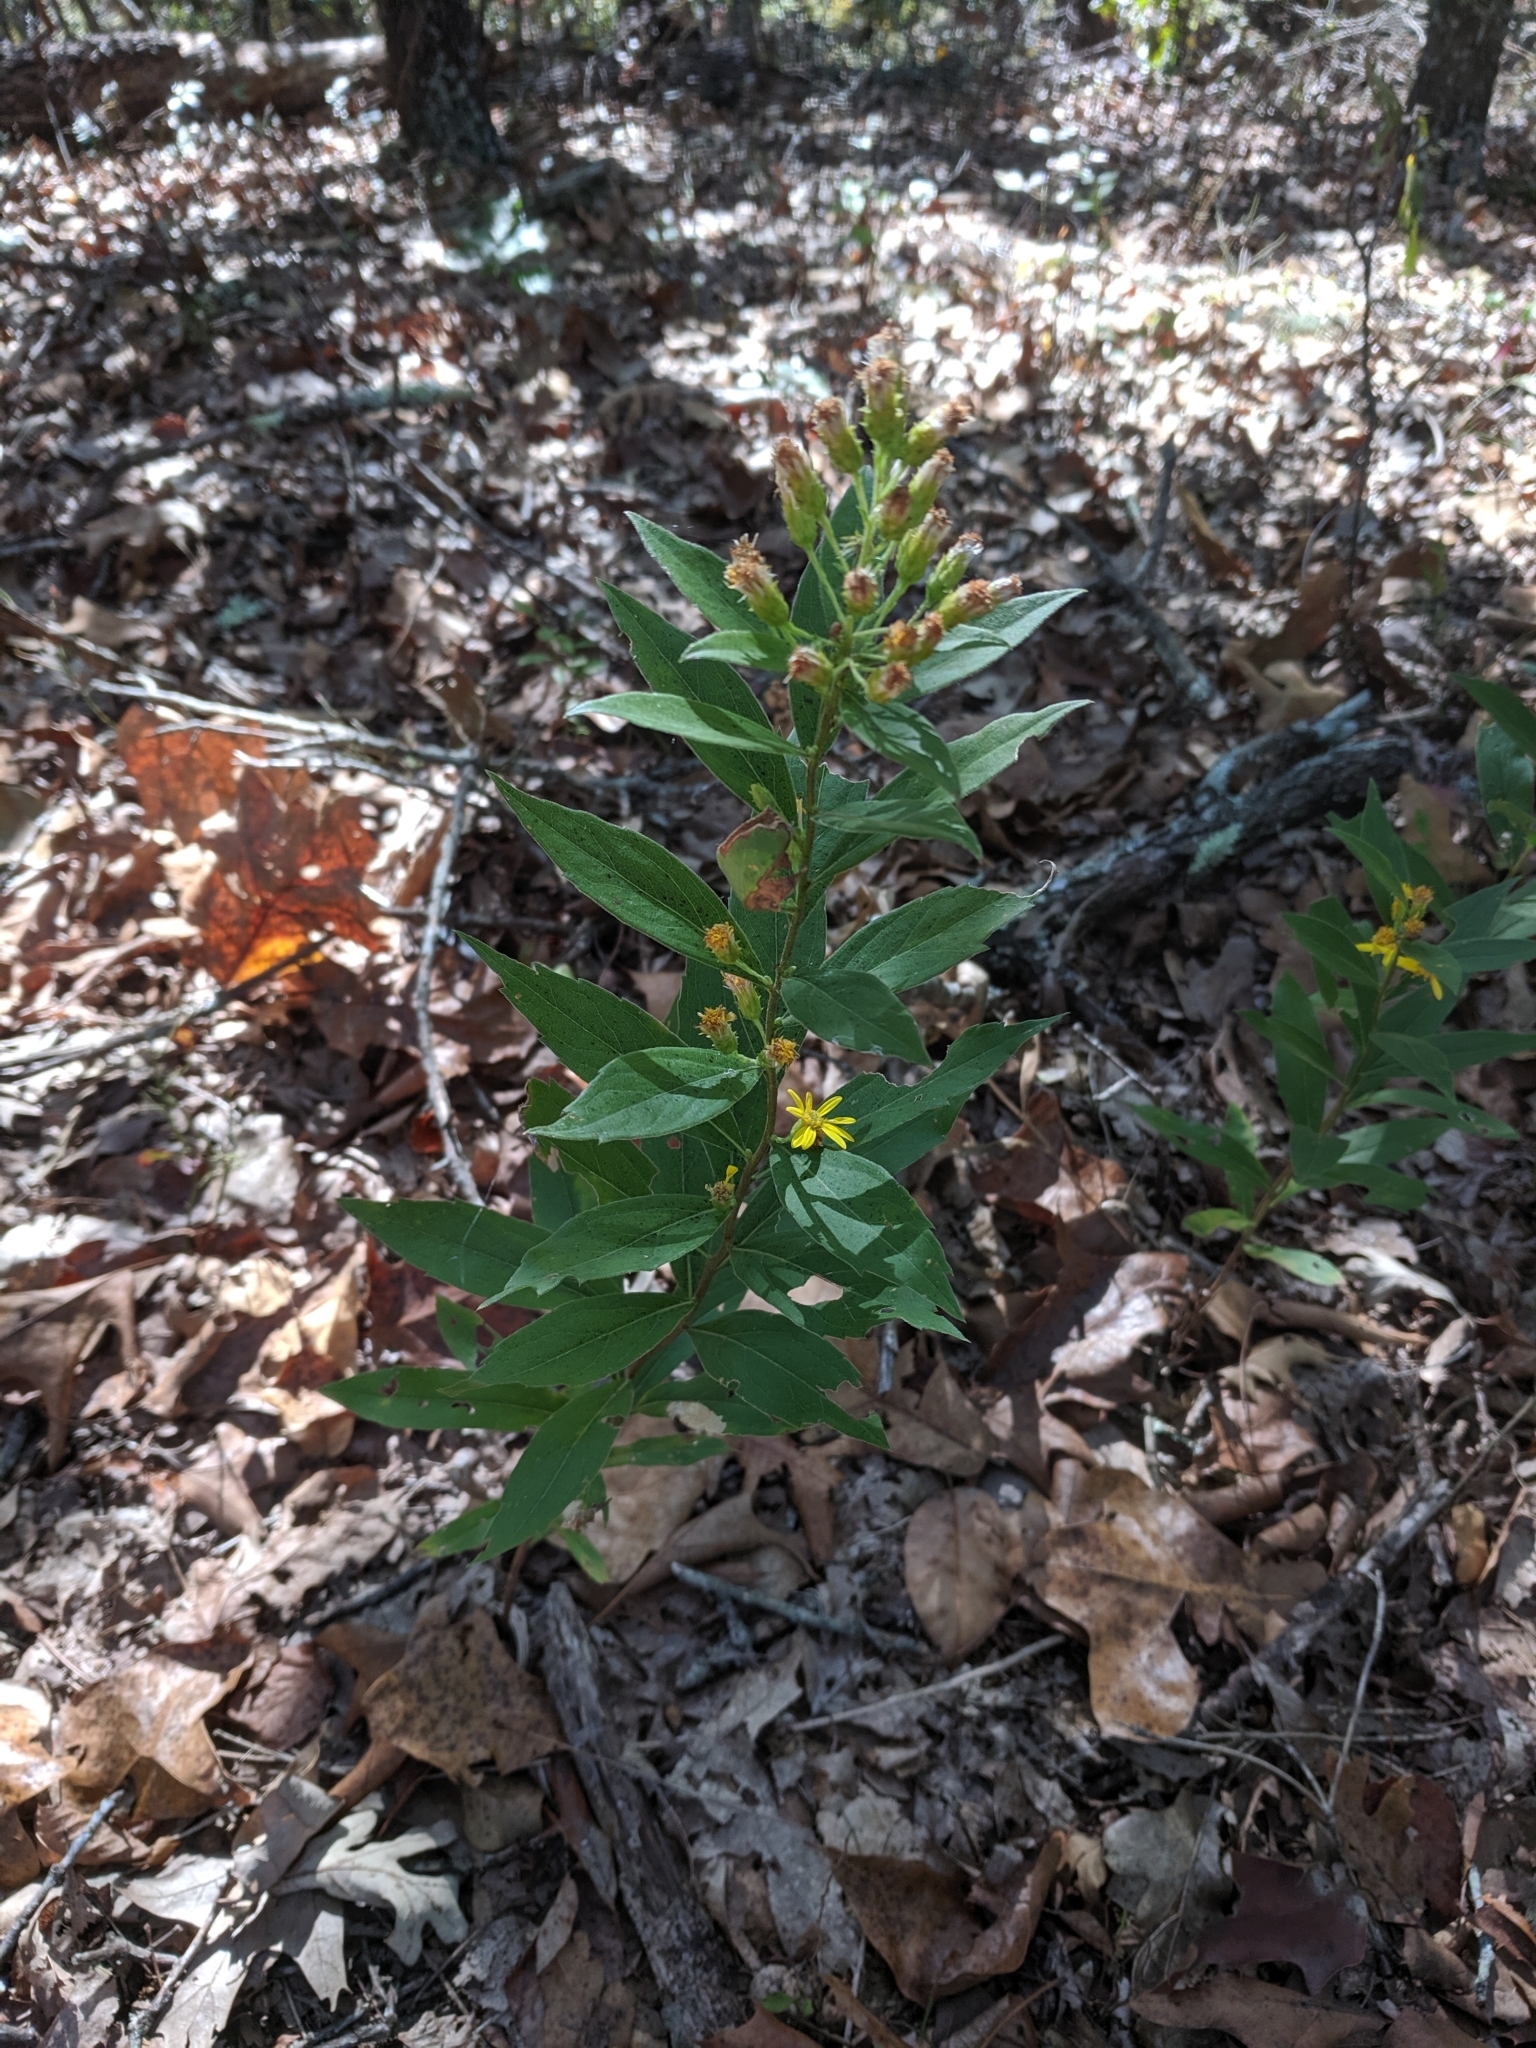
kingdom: Plantae
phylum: Tracheophyta
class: Magnoliopsida
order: Asterales
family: Asteraceae
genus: Solidago
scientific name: Solidago petiolaris
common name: Downy ragged goldenrod
